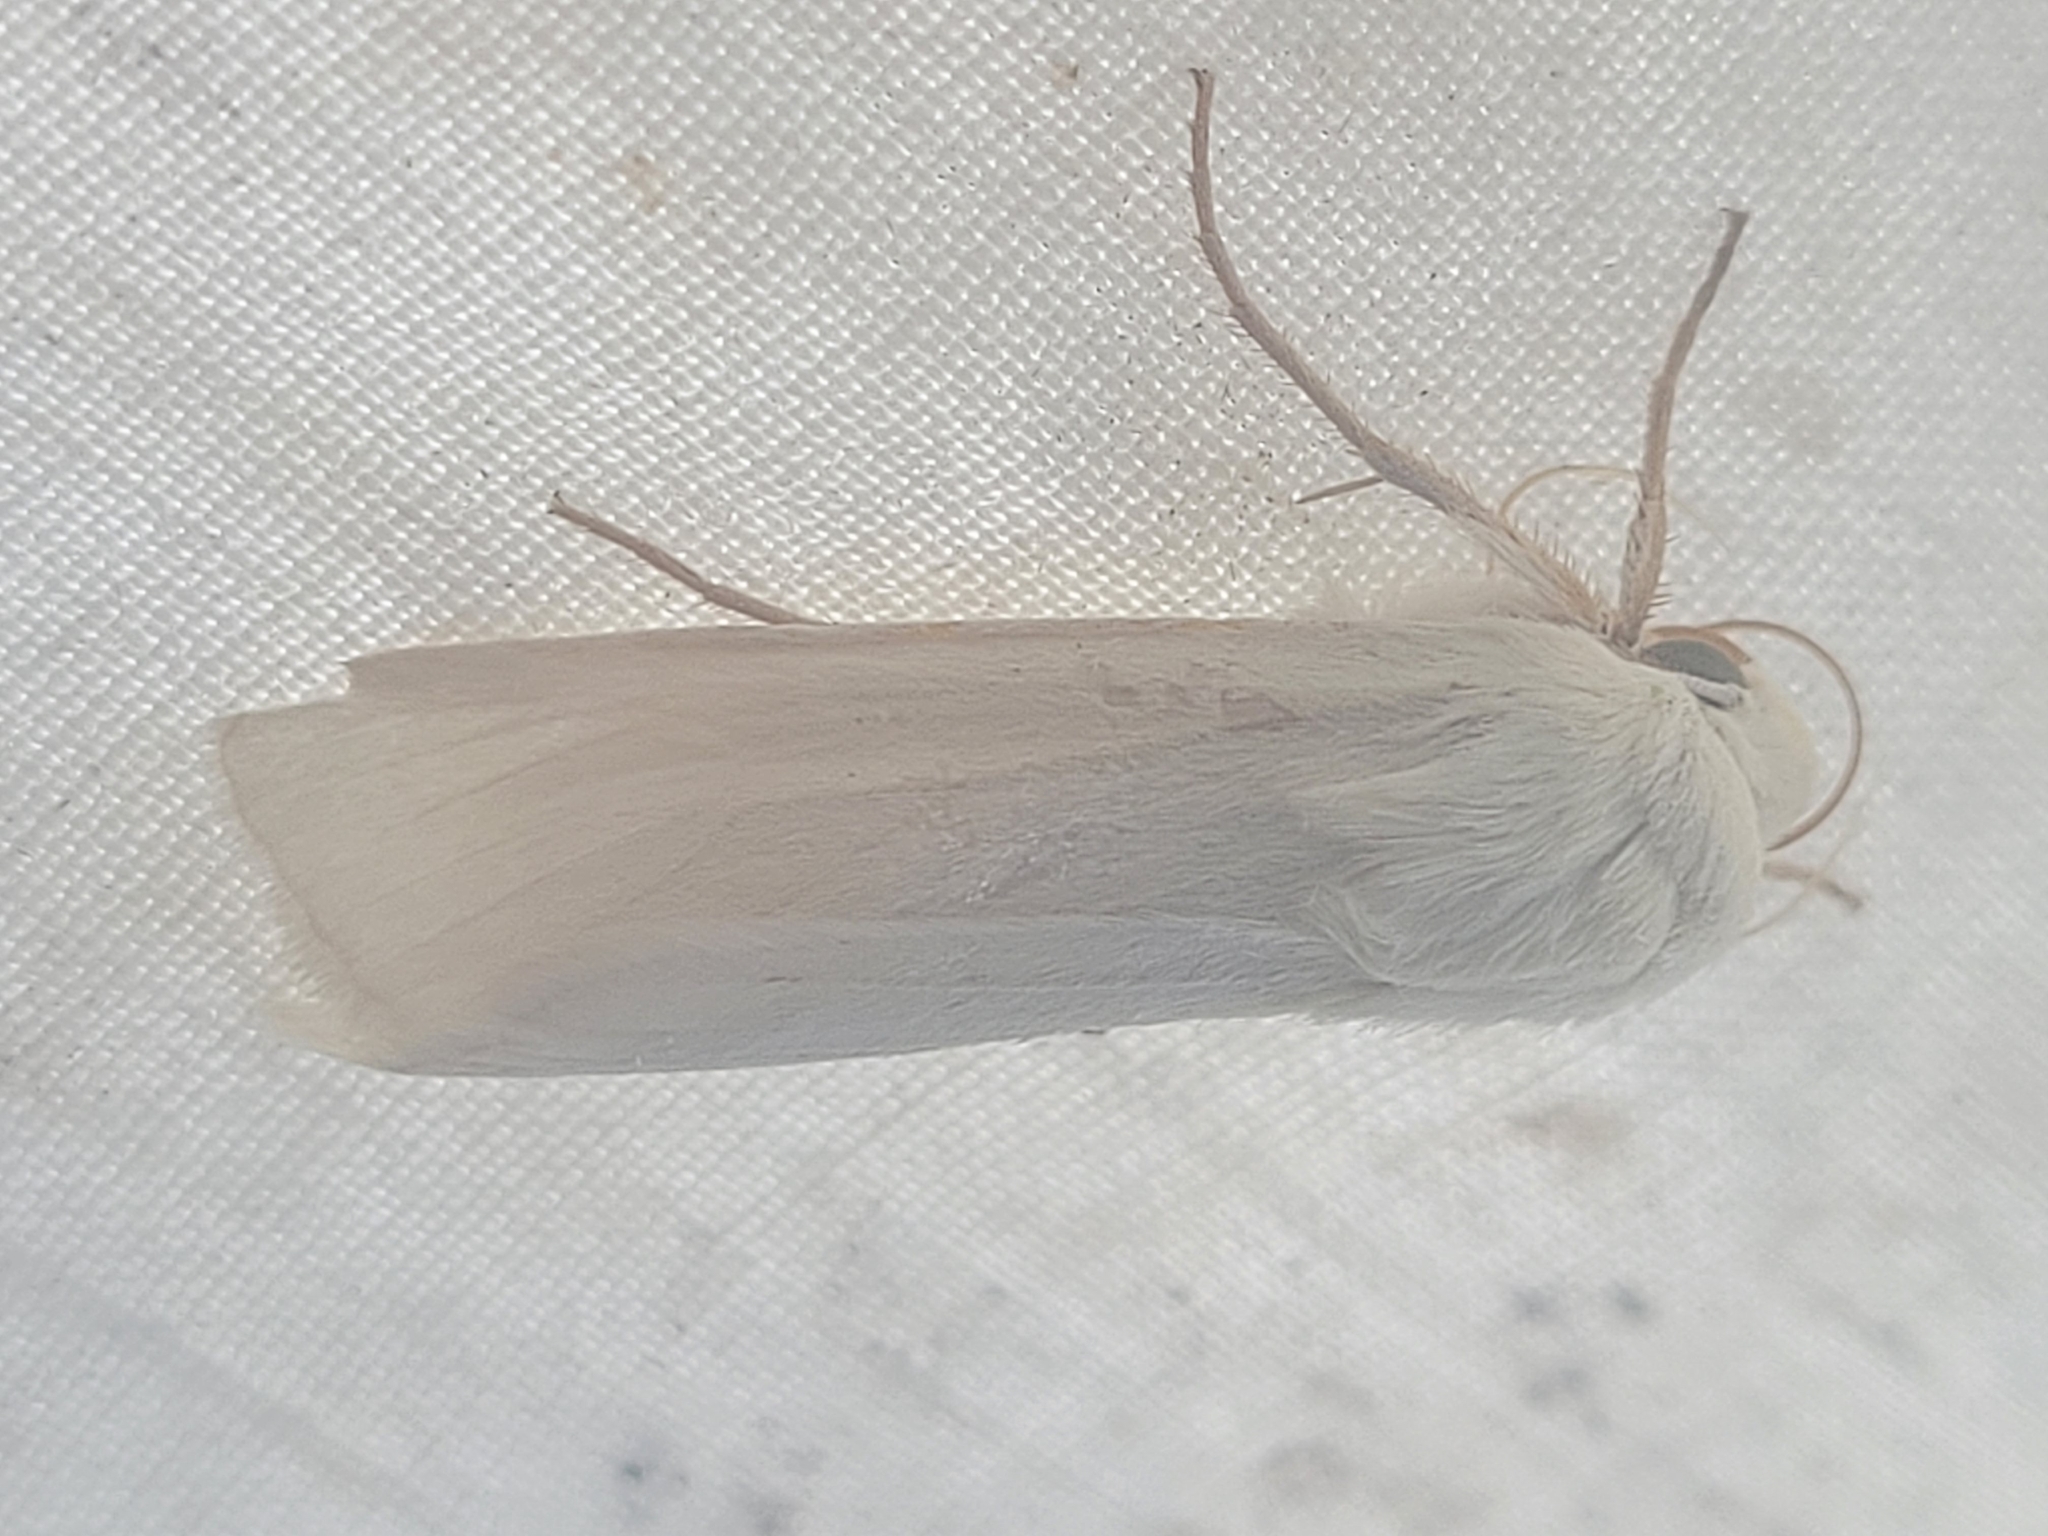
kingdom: Animalia
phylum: Arthropoda
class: Insecta
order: Lepidoptera
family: Noctuidae
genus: Copablepharon
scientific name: Copablepharon viridisparsa
